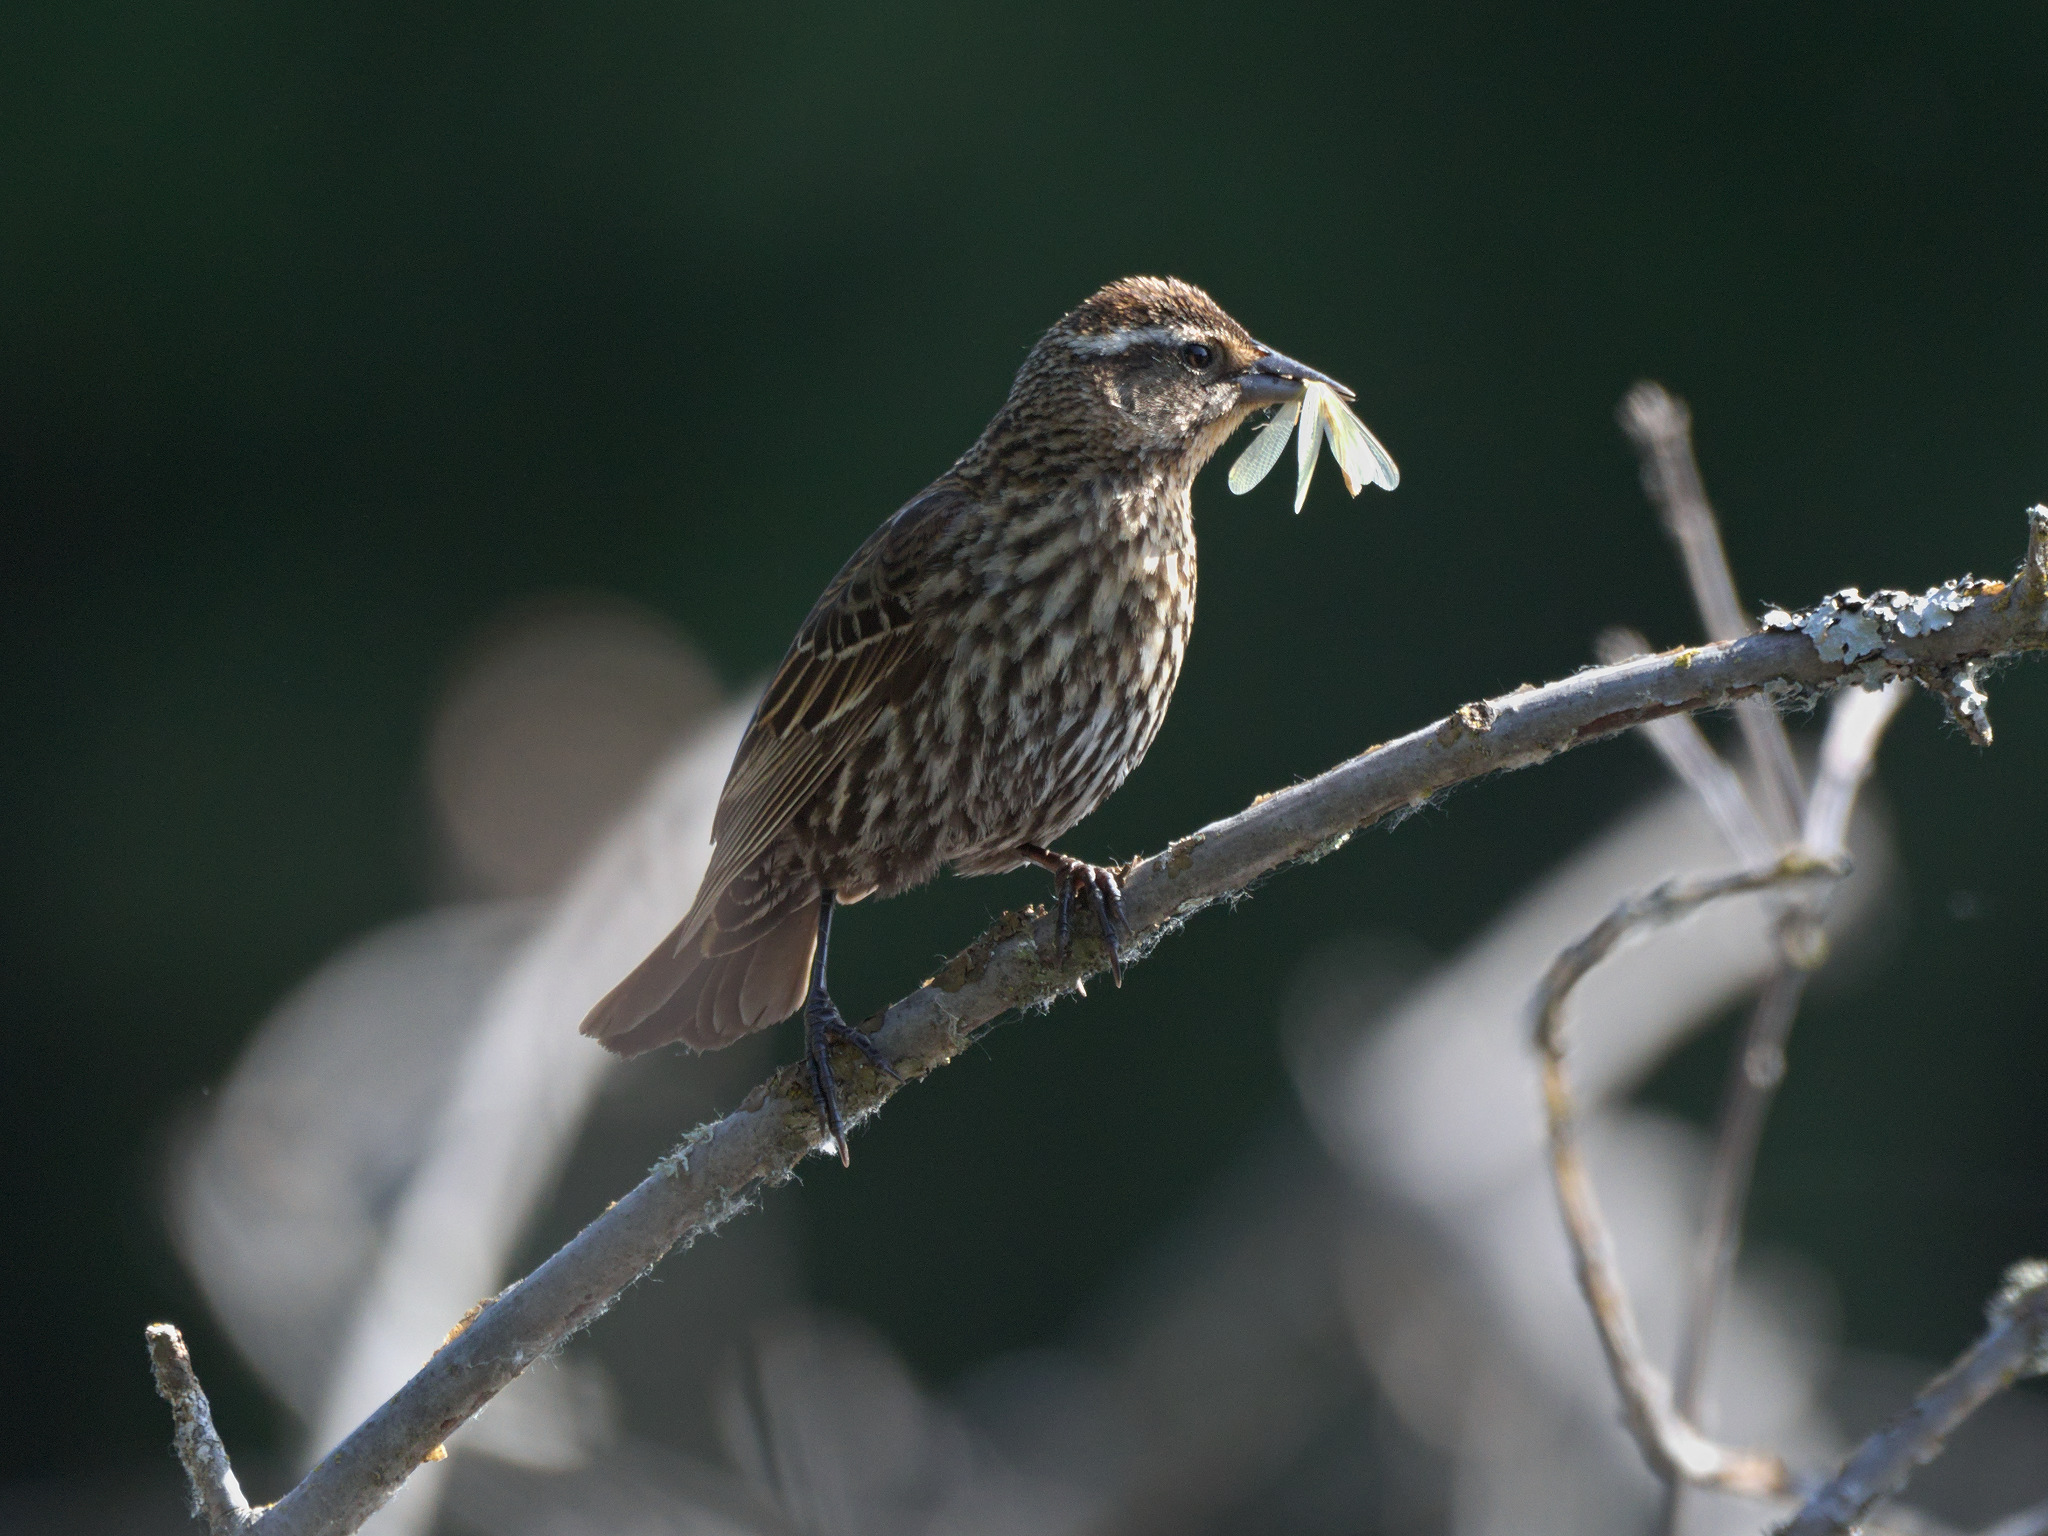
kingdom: Animalia
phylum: Chordata
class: Aves
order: Passeriformes
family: Icteridae
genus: Agelaius
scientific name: Agelaius phoeniceus
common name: Red-winged blackbird
